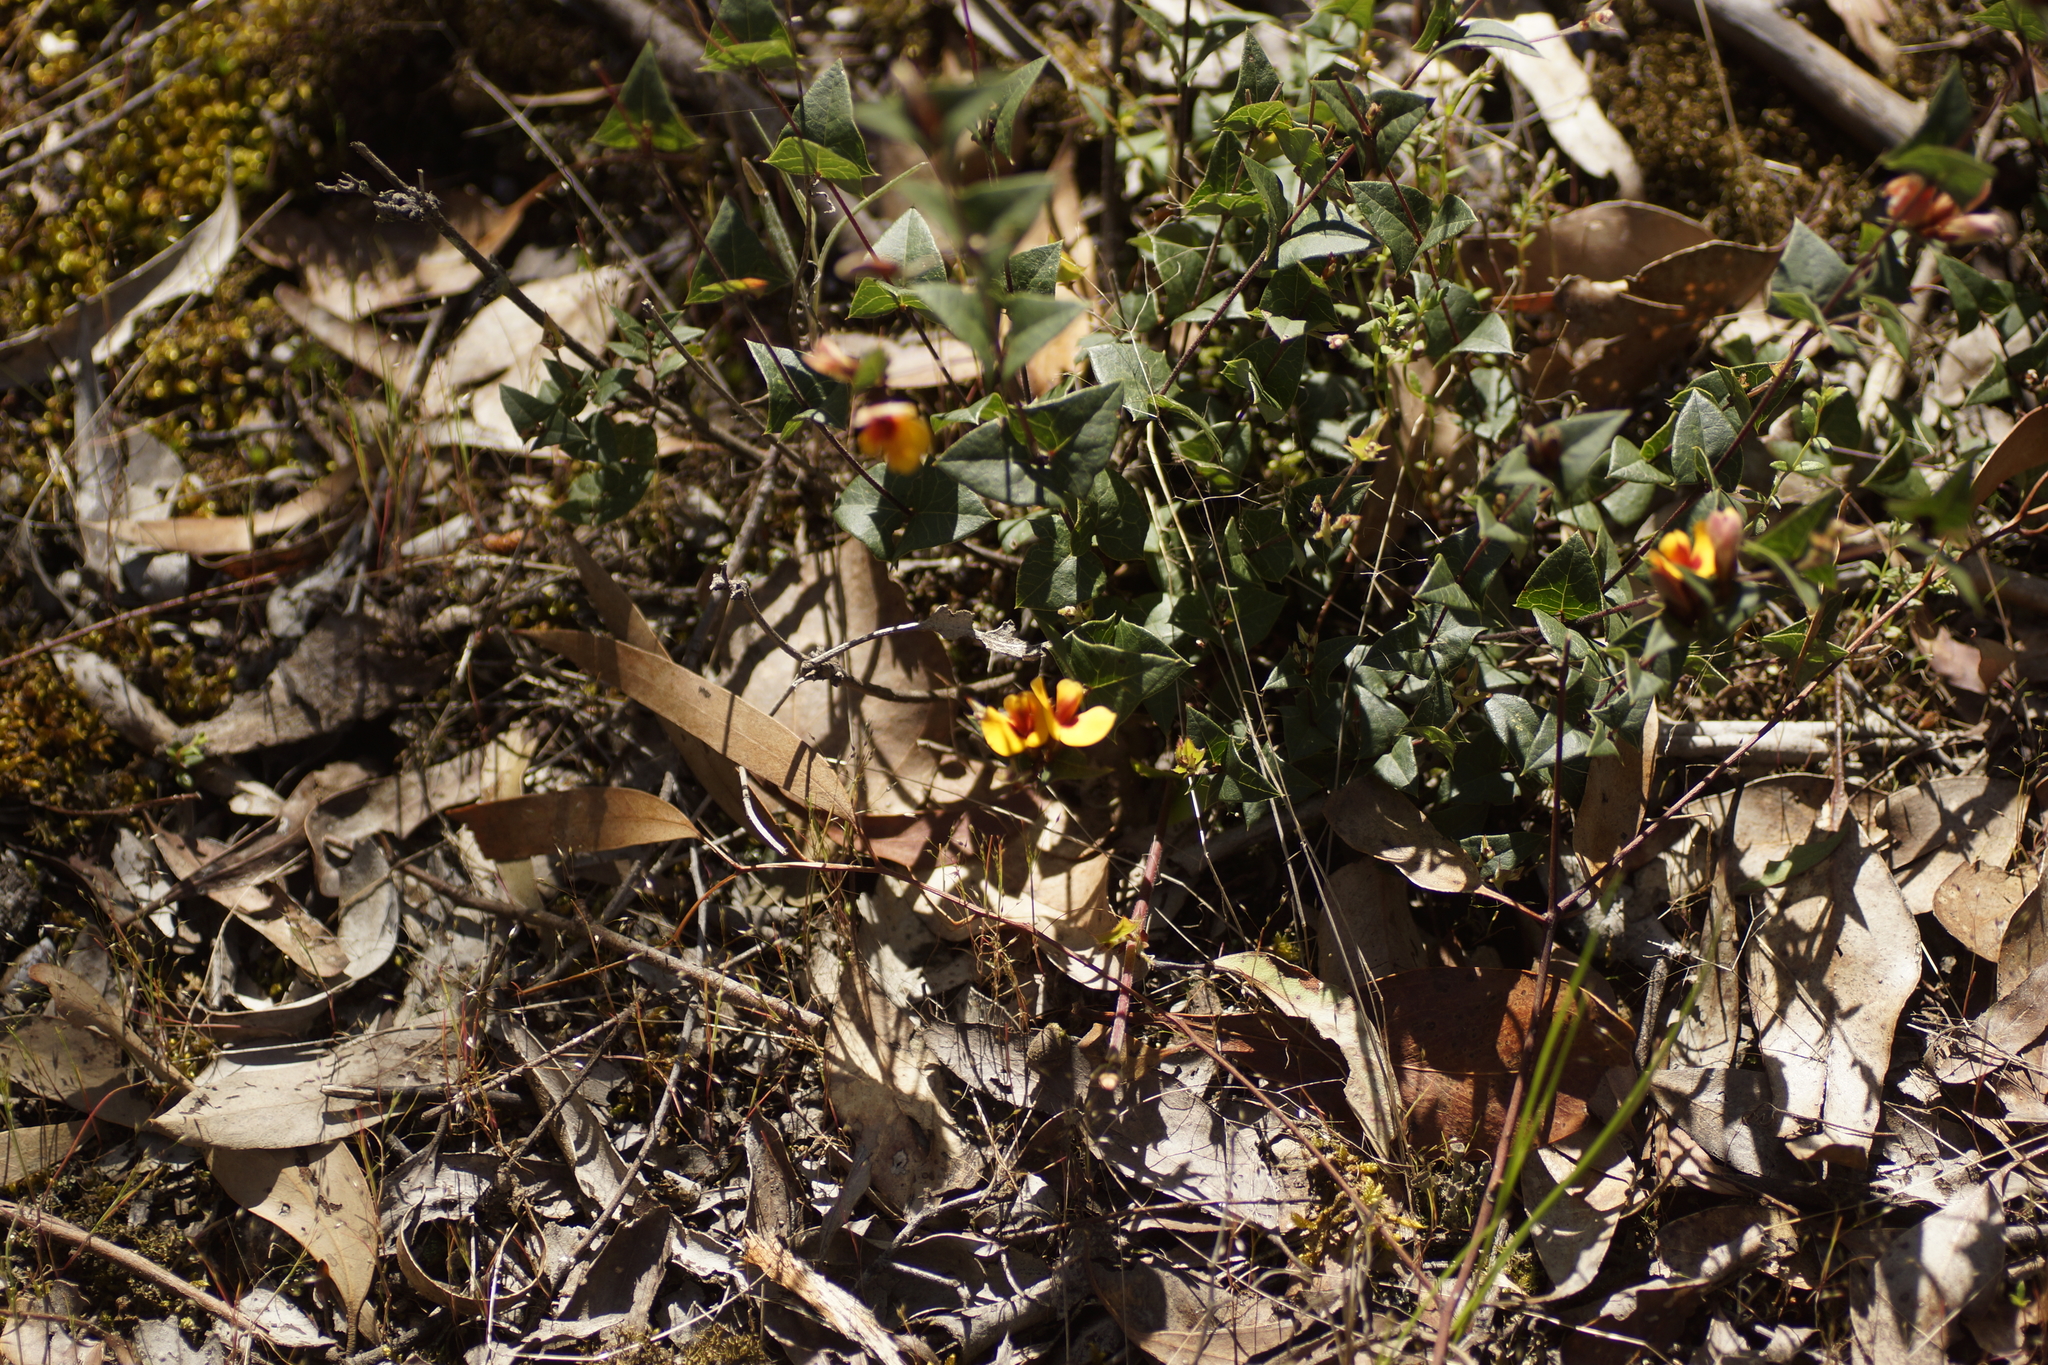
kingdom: Plantae
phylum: Tracheophyta
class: Magnoliopsida
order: Fabales
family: Fabaceae
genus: Platylobium
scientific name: Platylobium obtusangulum
